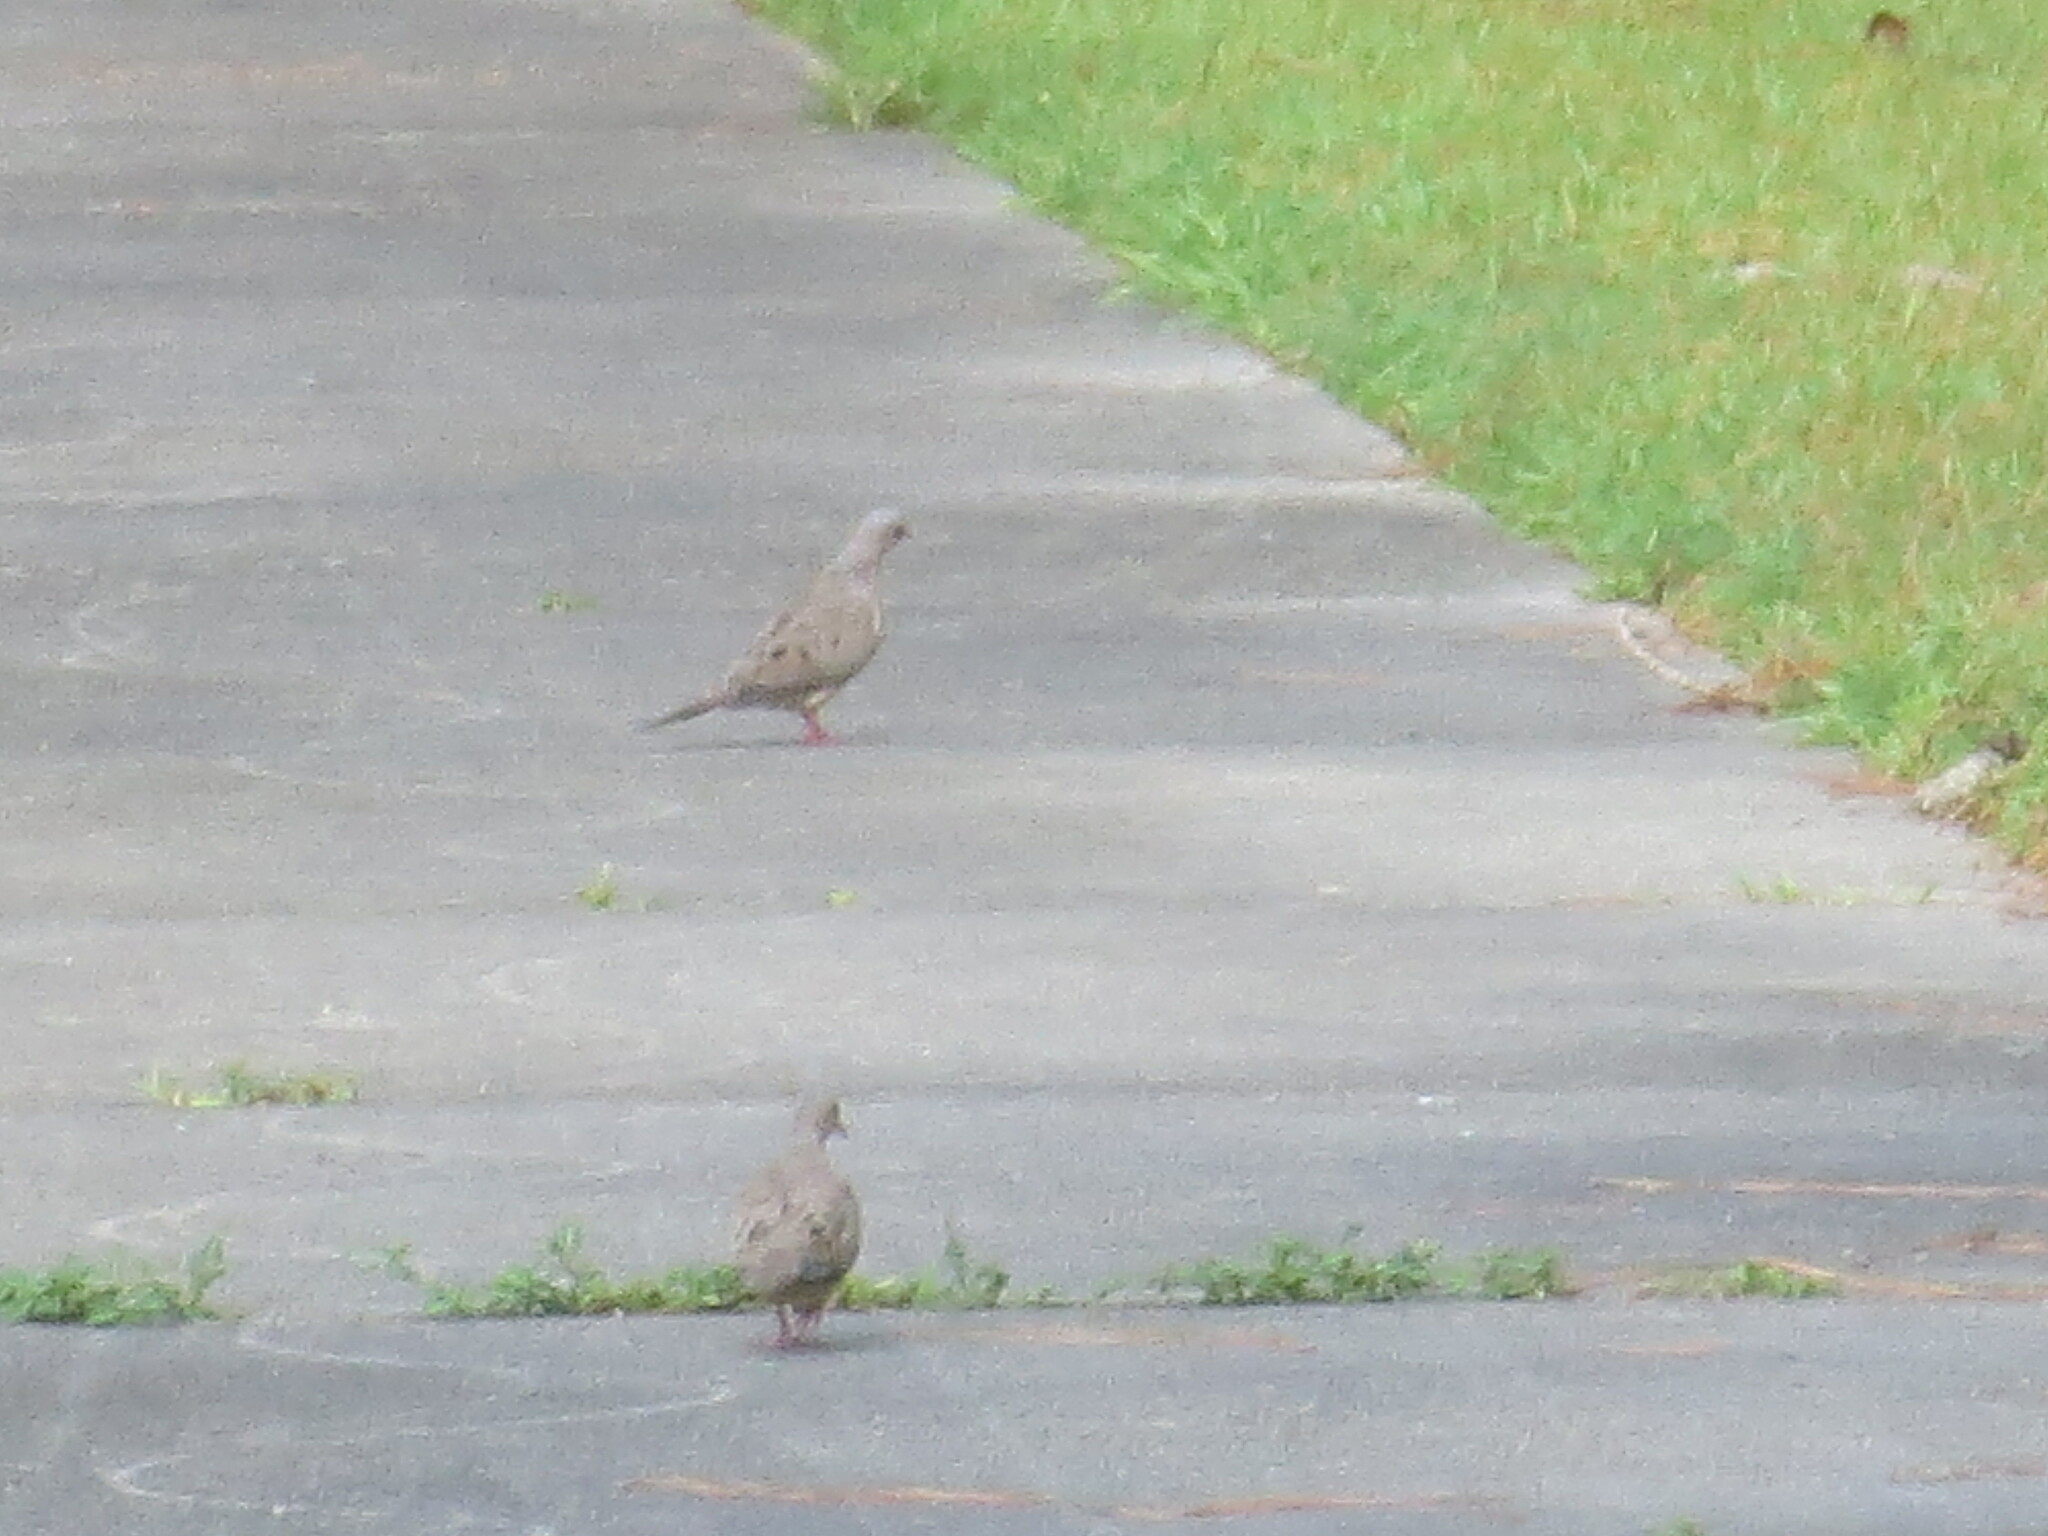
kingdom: Animalia
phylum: Chordata
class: Aves
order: Columbiformes
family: Columbidae
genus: Zenaida
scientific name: Zenaida macroura
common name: Mourning dove
